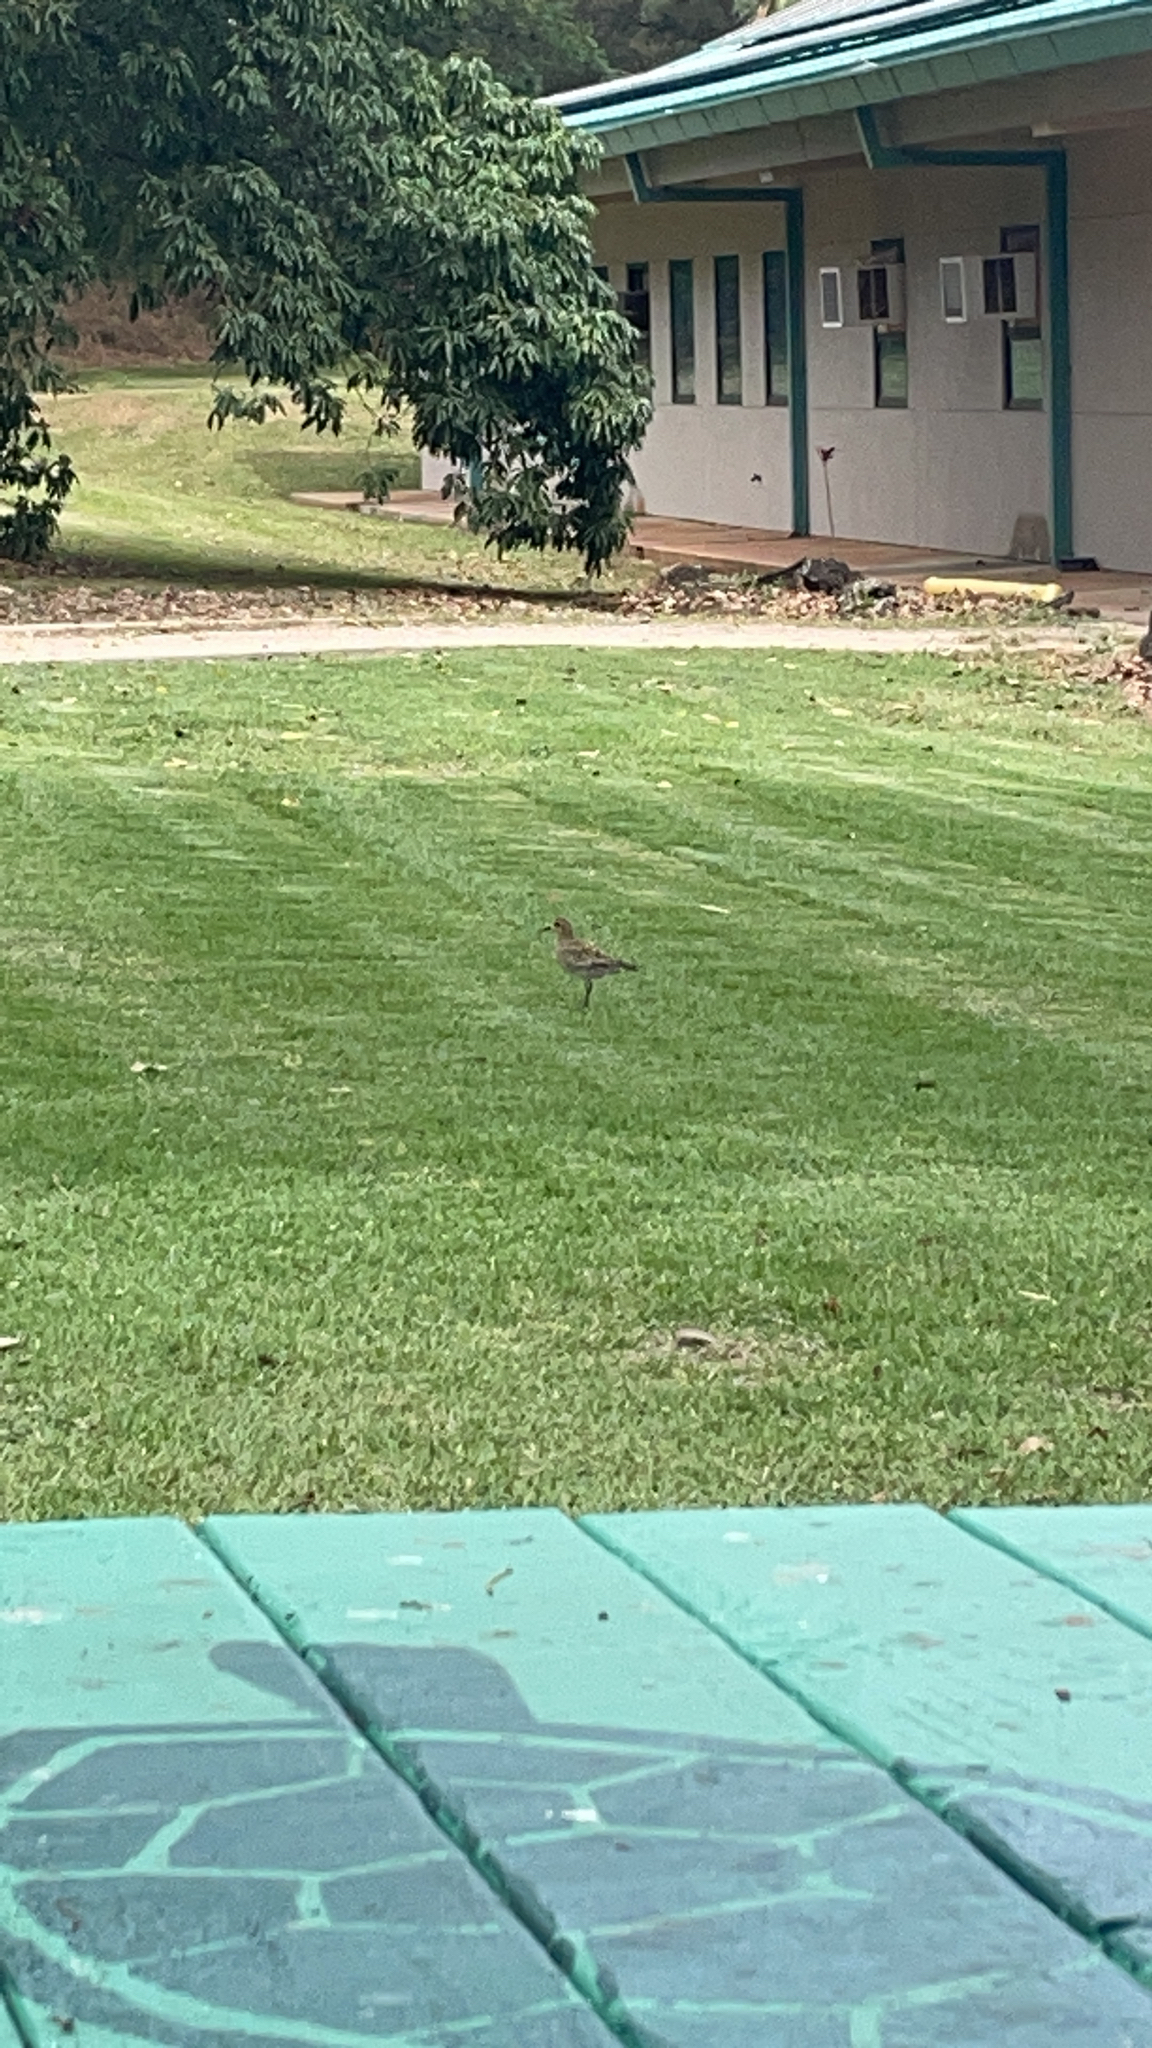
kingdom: Animalia
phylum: Chordata
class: Aves
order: Charadriiformes
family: Charadriidae
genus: Pluvialis
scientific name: Pluvialis fulva
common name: Pacific golden plover
